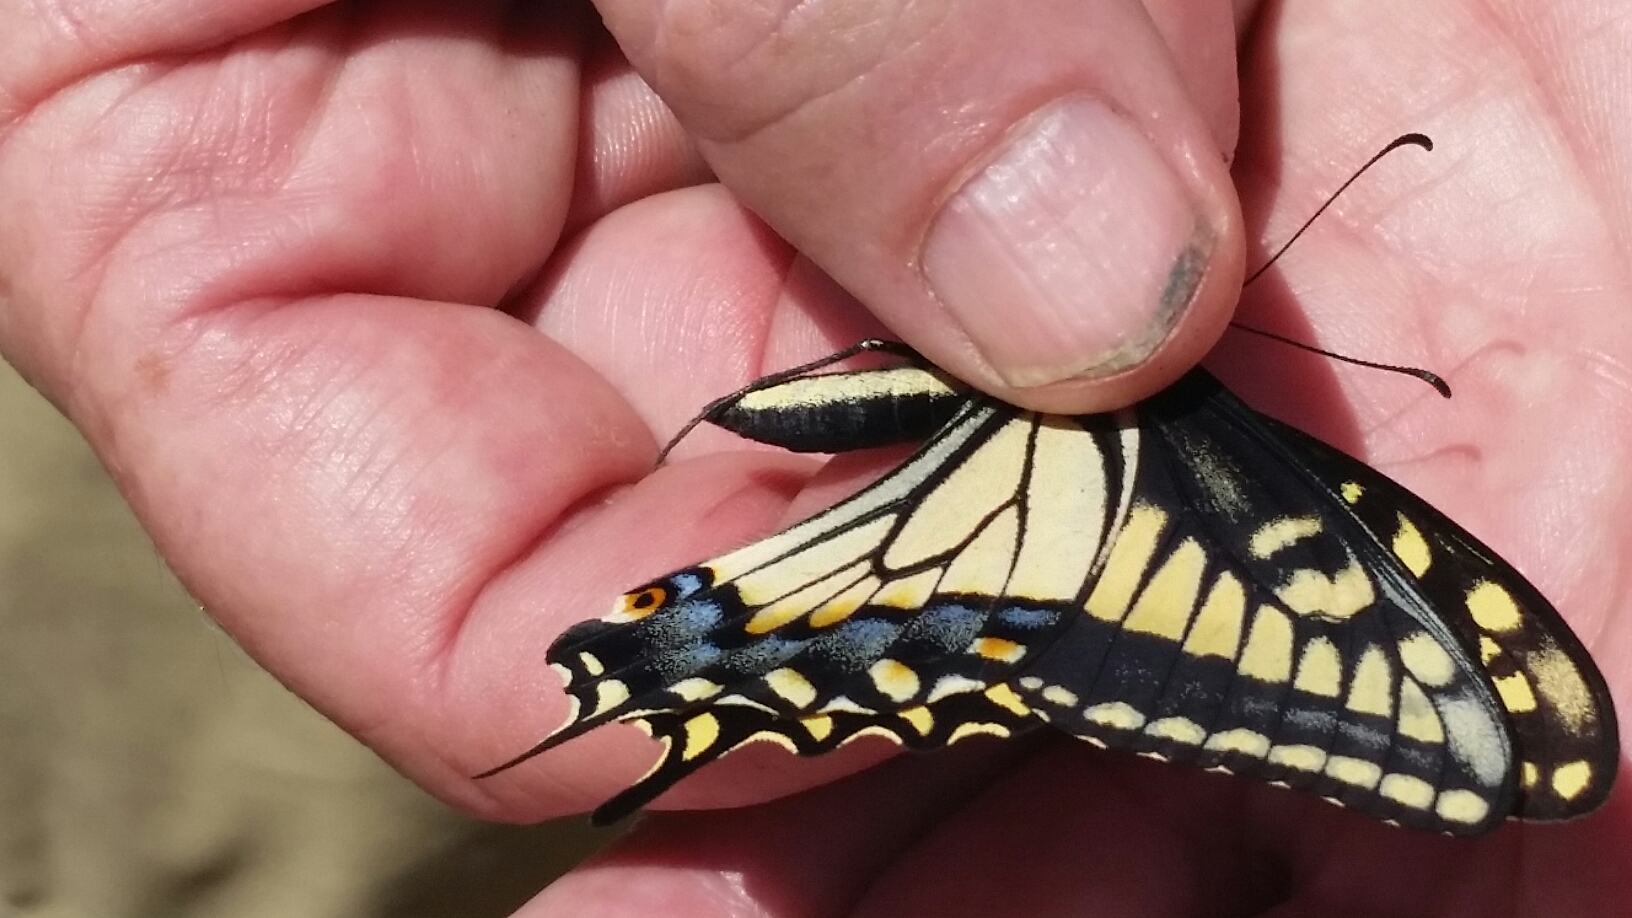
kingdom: Animalia
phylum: Arthropoda
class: Insecta
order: Lepidoptera
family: Papilionidae
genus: Papilio
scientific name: Papilio zelicaon
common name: Anise swallowtail
